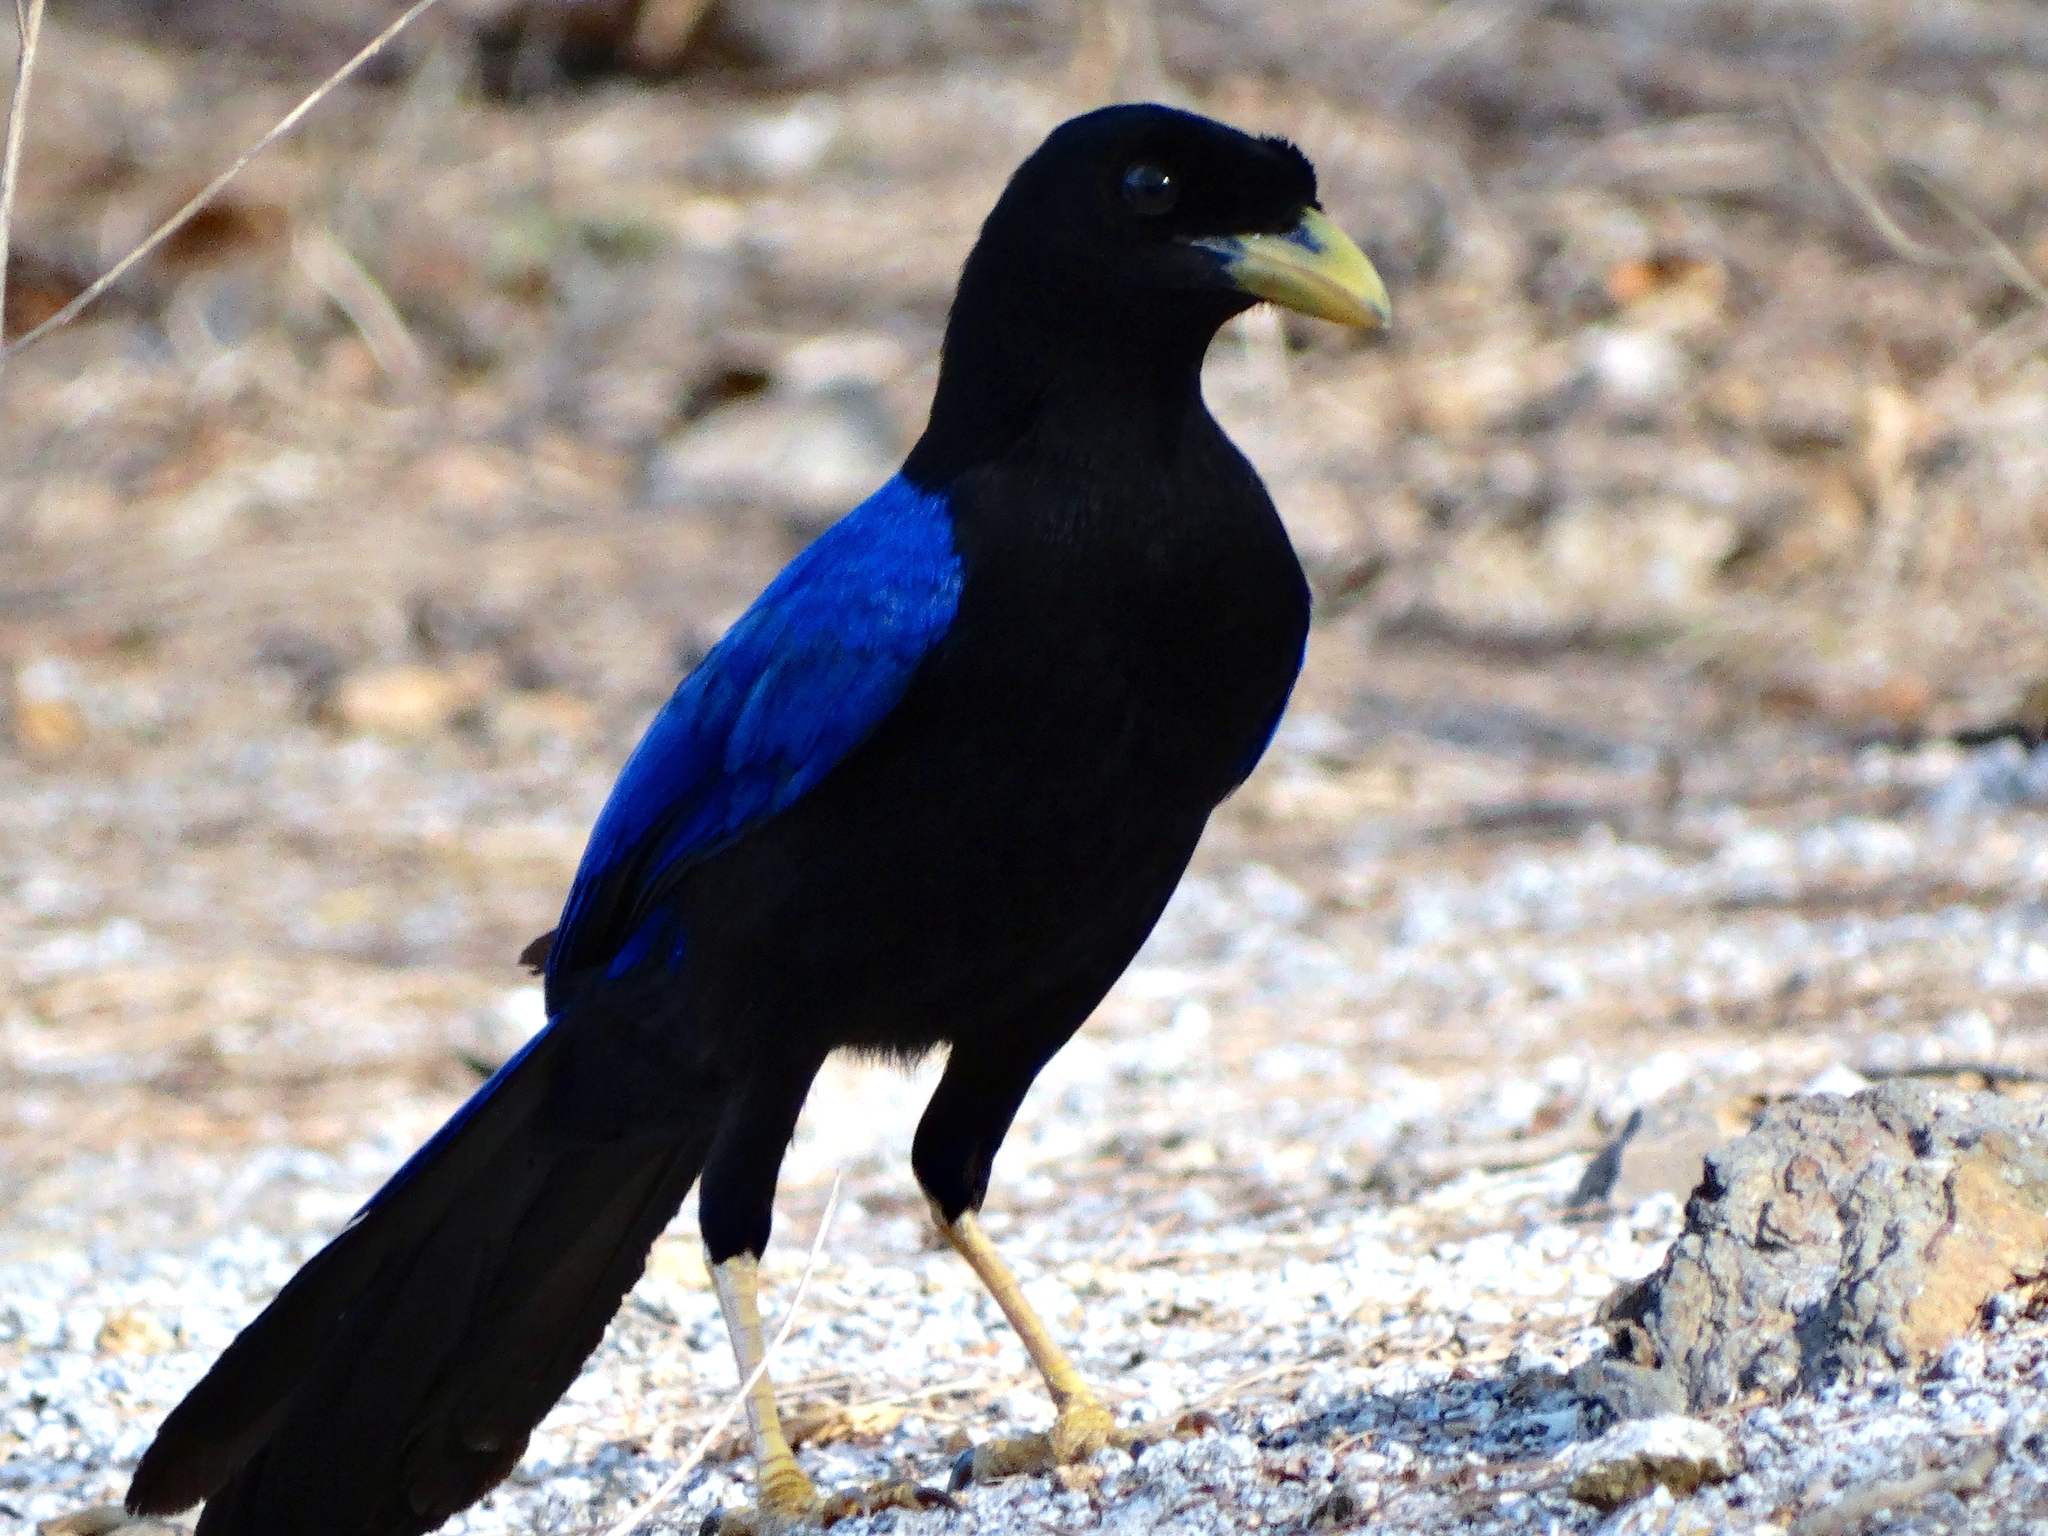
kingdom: Animalia
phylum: Chordata
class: Aves
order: Passeriformes
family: Corvidae
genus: Cyanocorax
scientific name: Cyanocorax beecheii
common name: Purplish-backed jay
